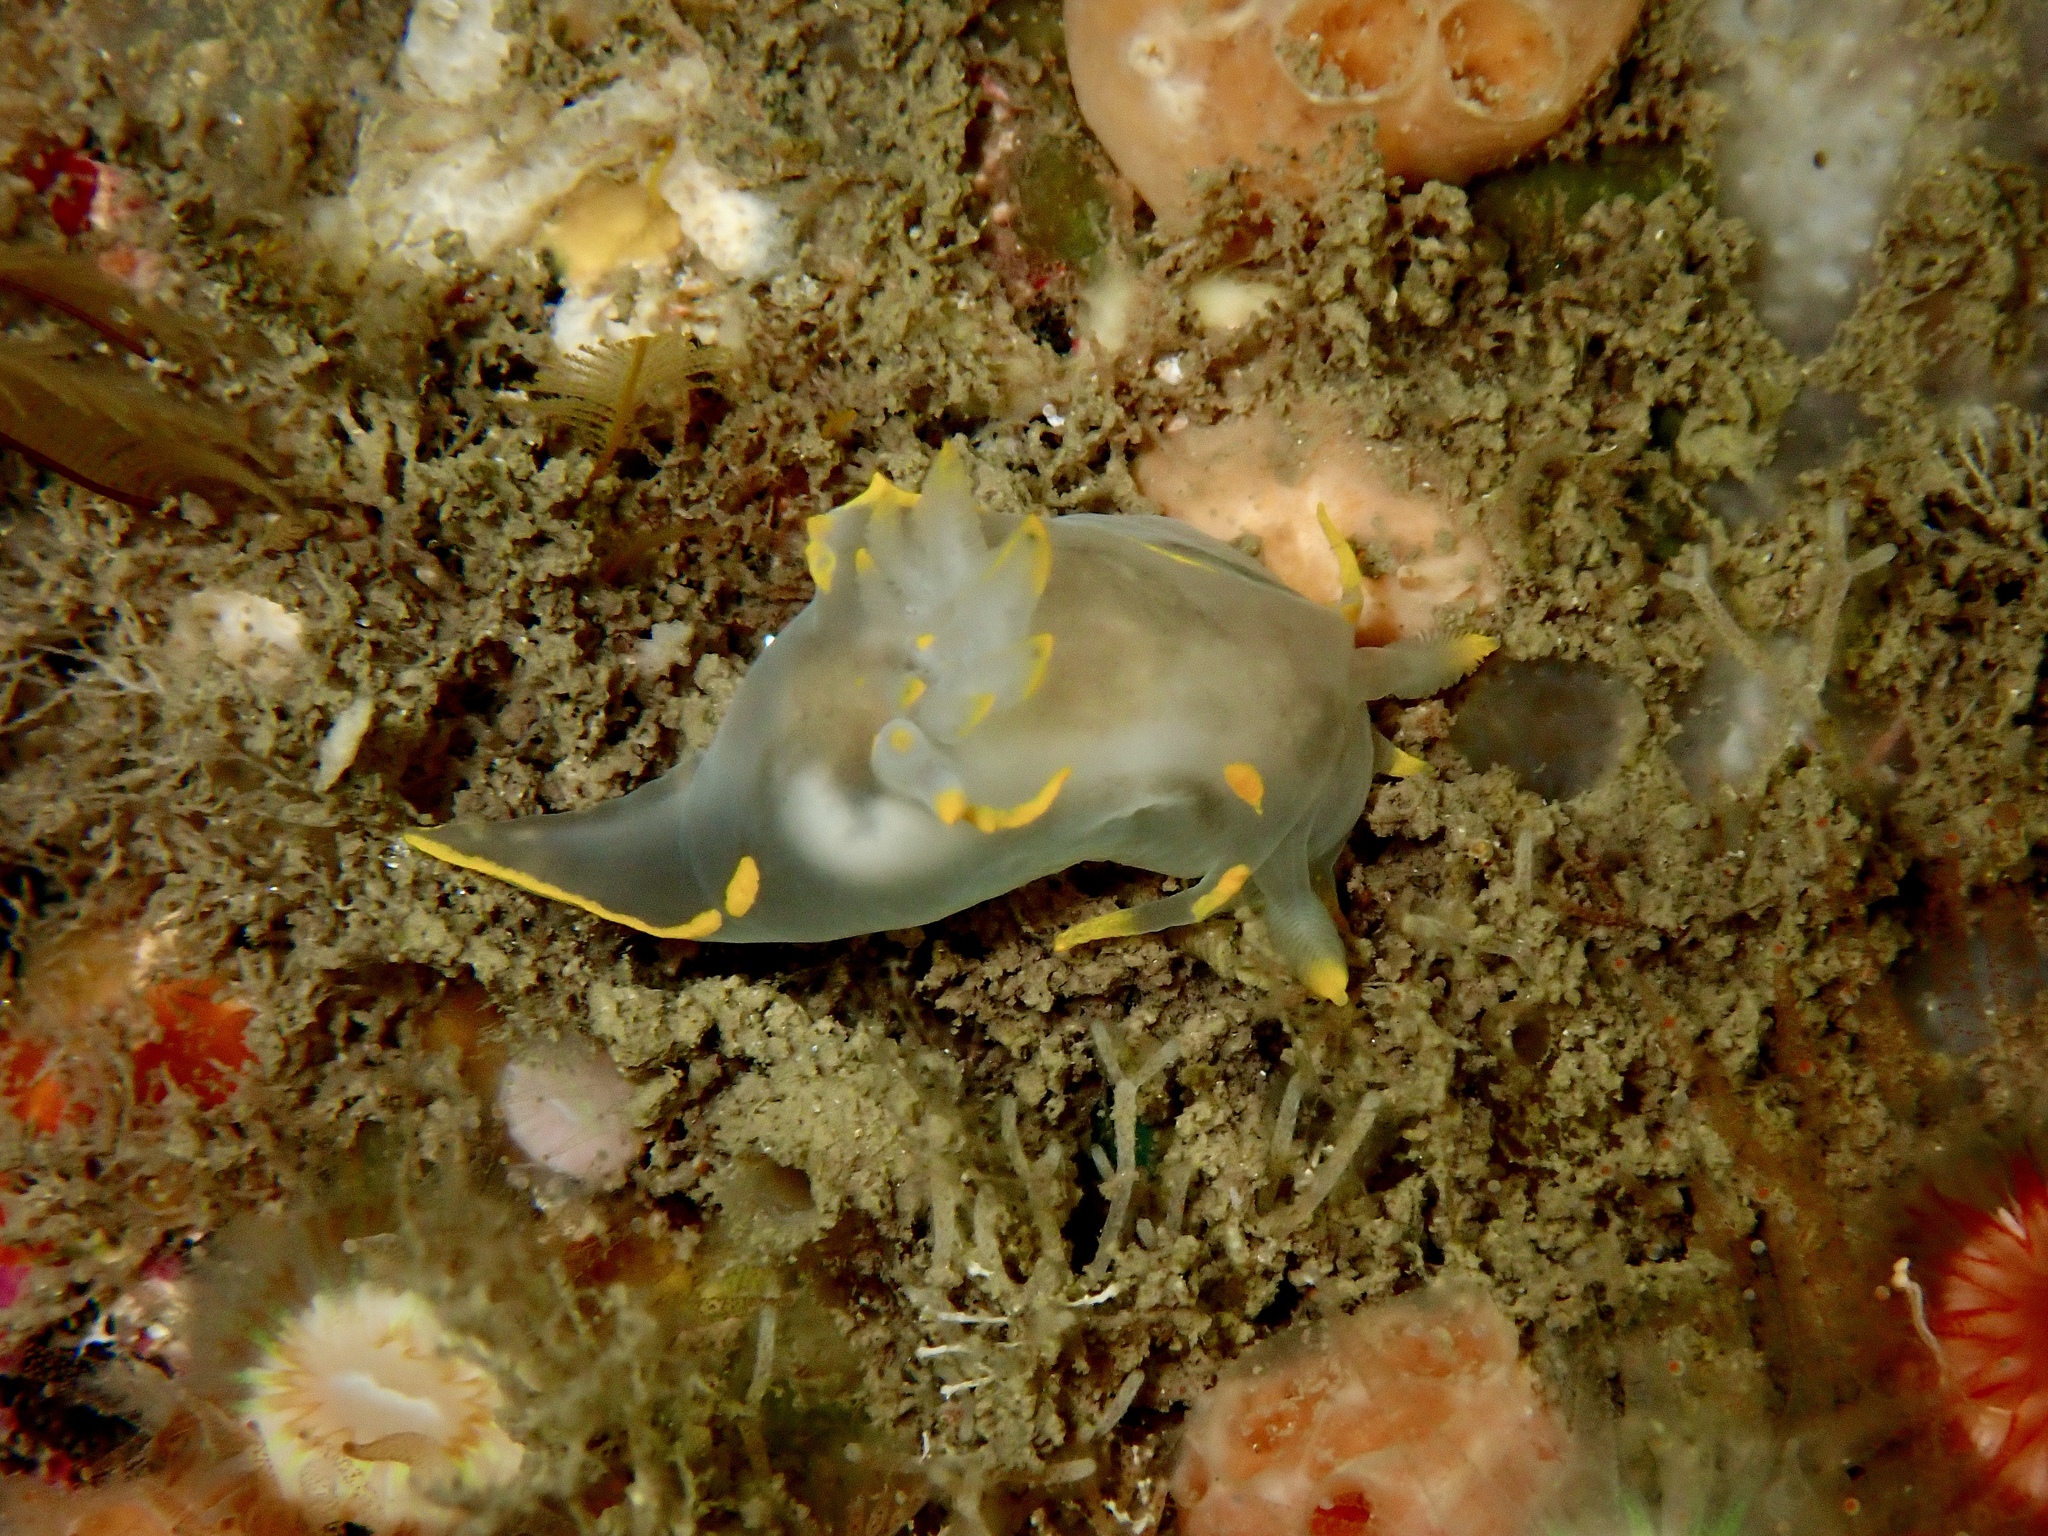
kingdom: Animalia
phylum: Mollusca
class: Gastropoda
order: Nudibranchia
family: Polyceridae
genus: Polycera
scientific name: Polycera faeroensis
